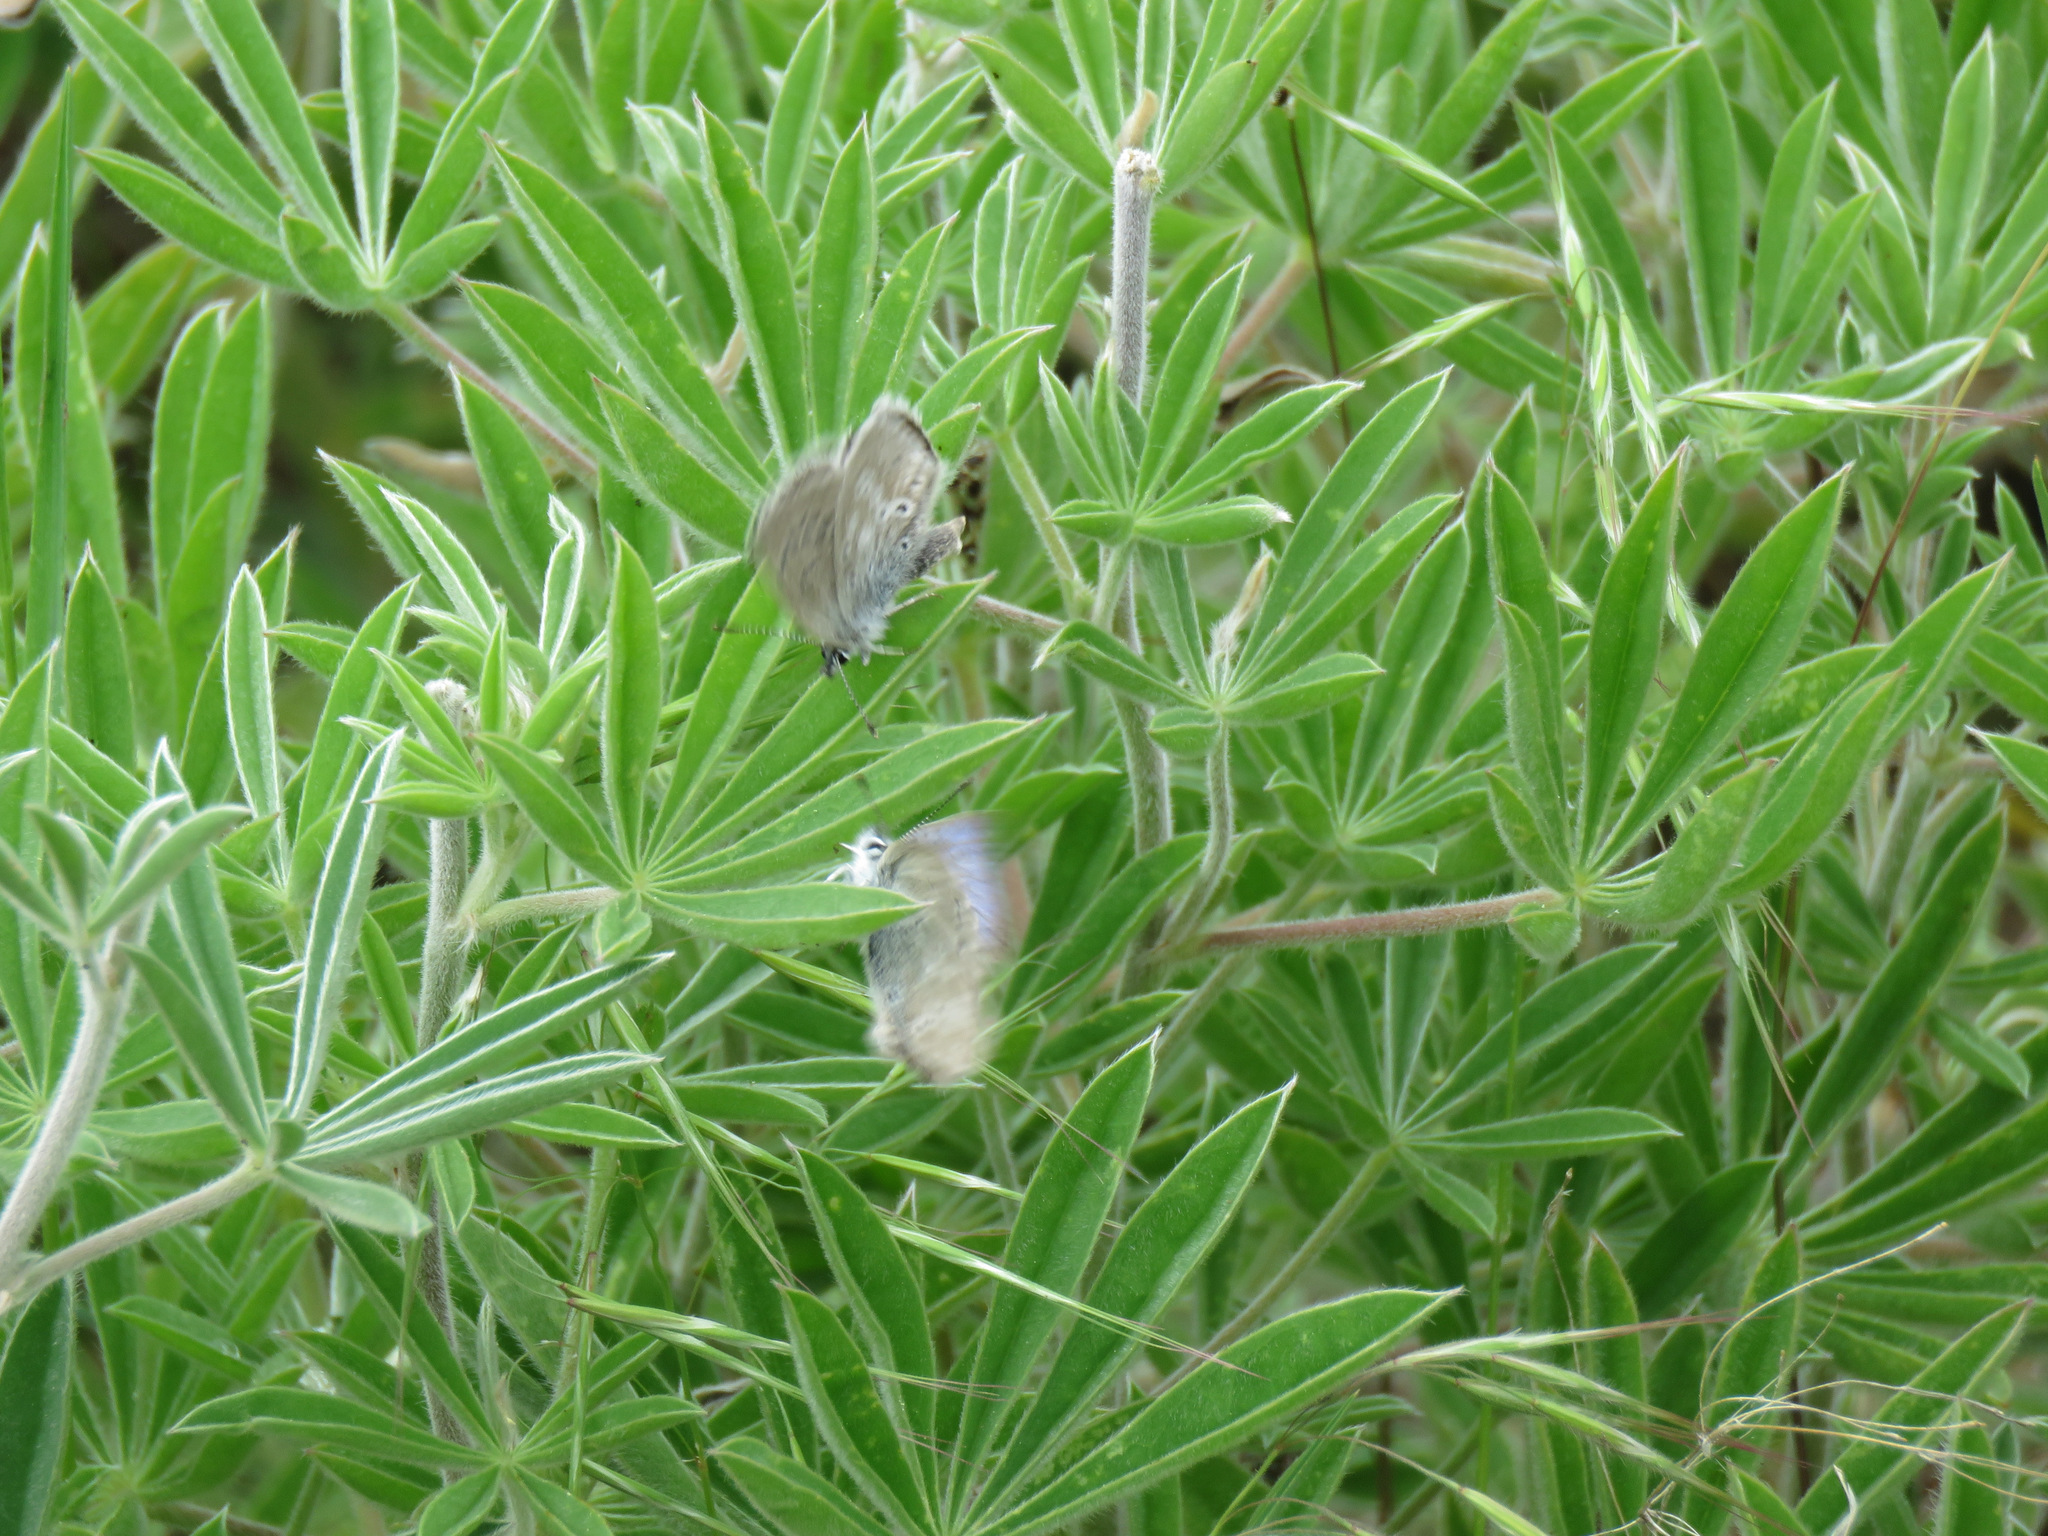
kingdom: Animalia
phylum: Arthropoda
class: Insecta
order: Lepidoptera
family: Lycaenidae
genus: Icaricia
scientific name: Icaricia icarioides
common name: Boisduval's blue
